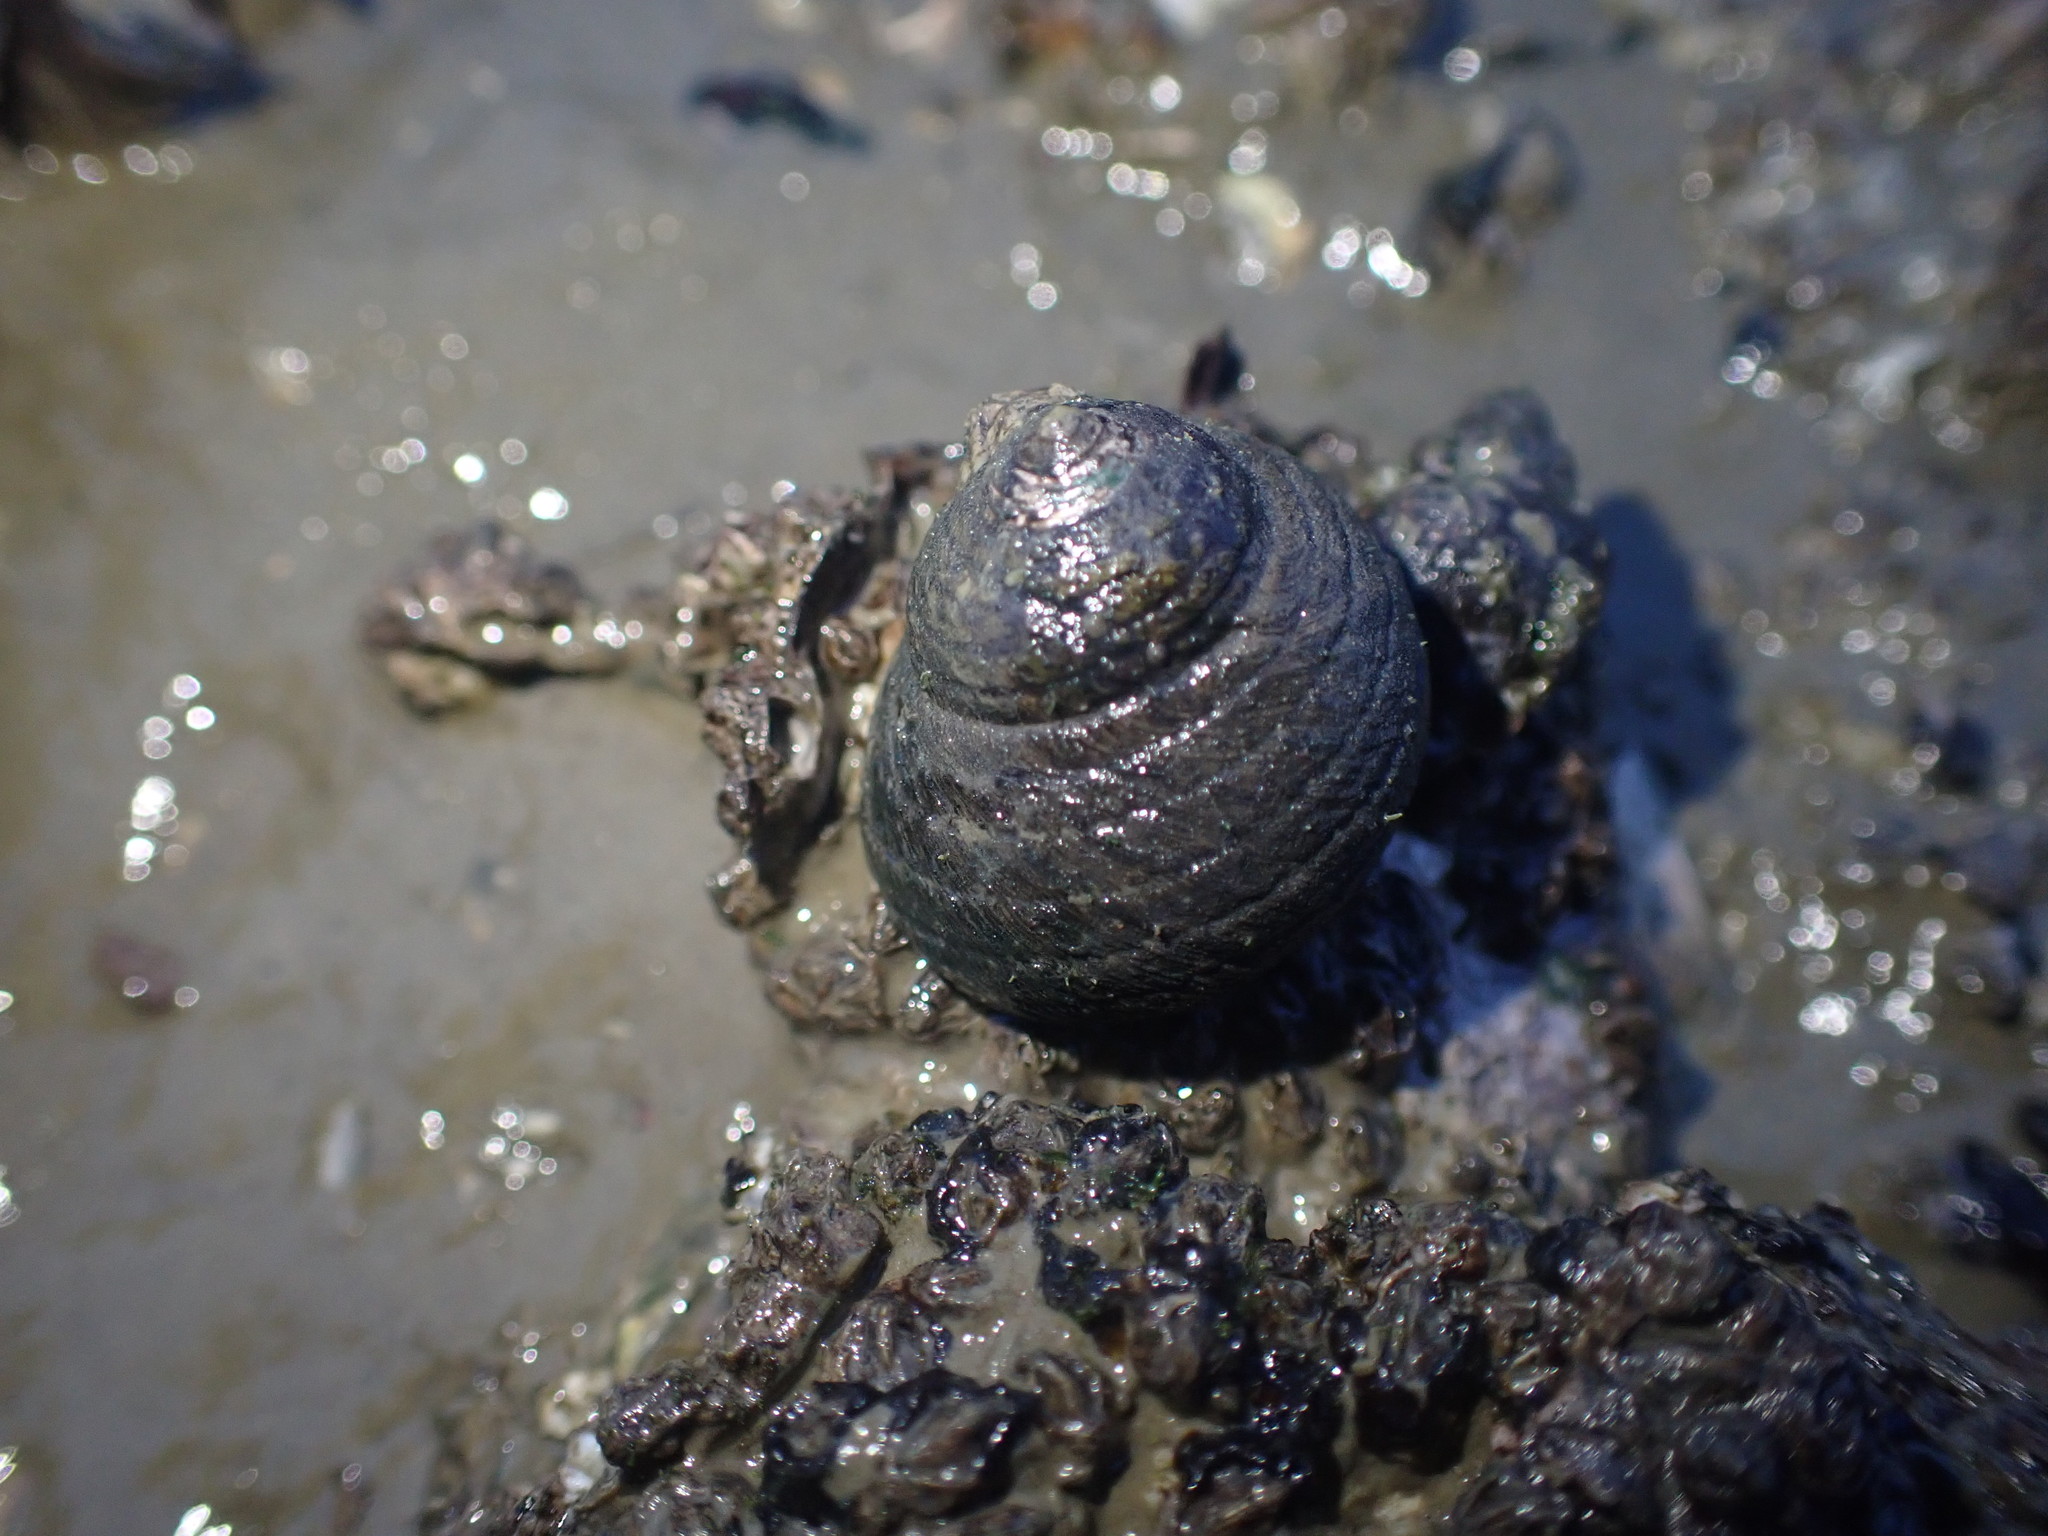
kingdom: Animalia
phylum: Mollusca
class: Gastropoda
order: Trochida
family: Trochidae
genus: Diloma
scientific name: Diloma aethiops
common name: Scorched monodont
